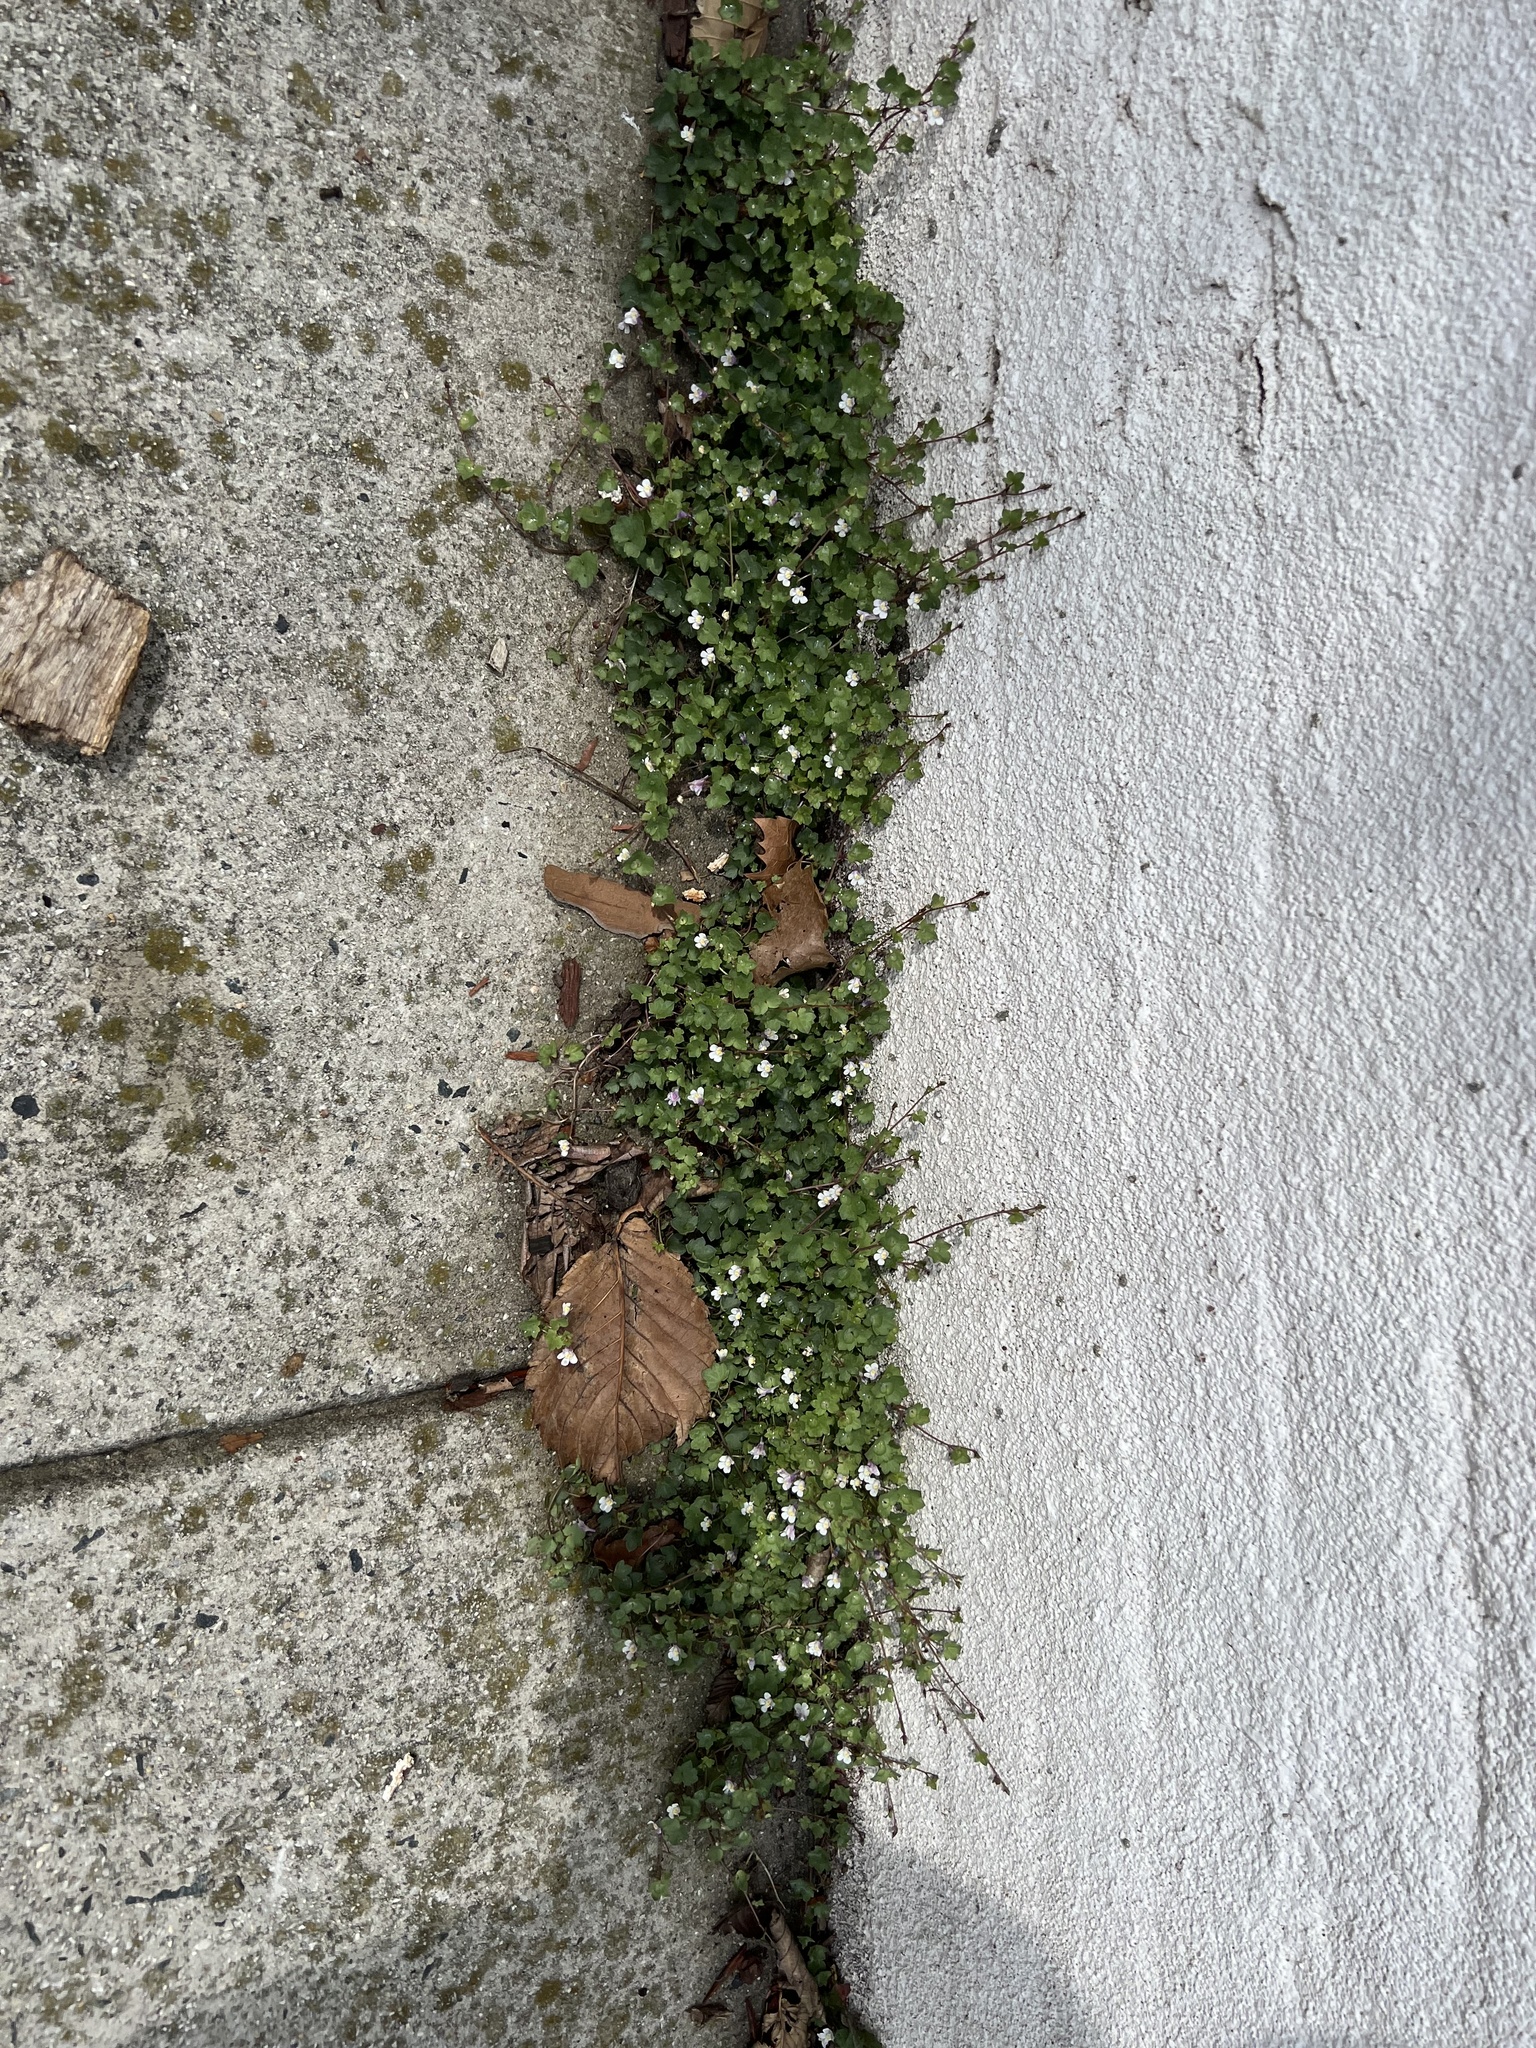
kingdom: Plantae
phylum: Tracheophyta
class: Magnoliopsida
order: Lamiales
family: Plantaginaceae
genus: Cymbalaria
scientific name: Cymbalaria muralis
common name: Ivy-leaved toadflax
